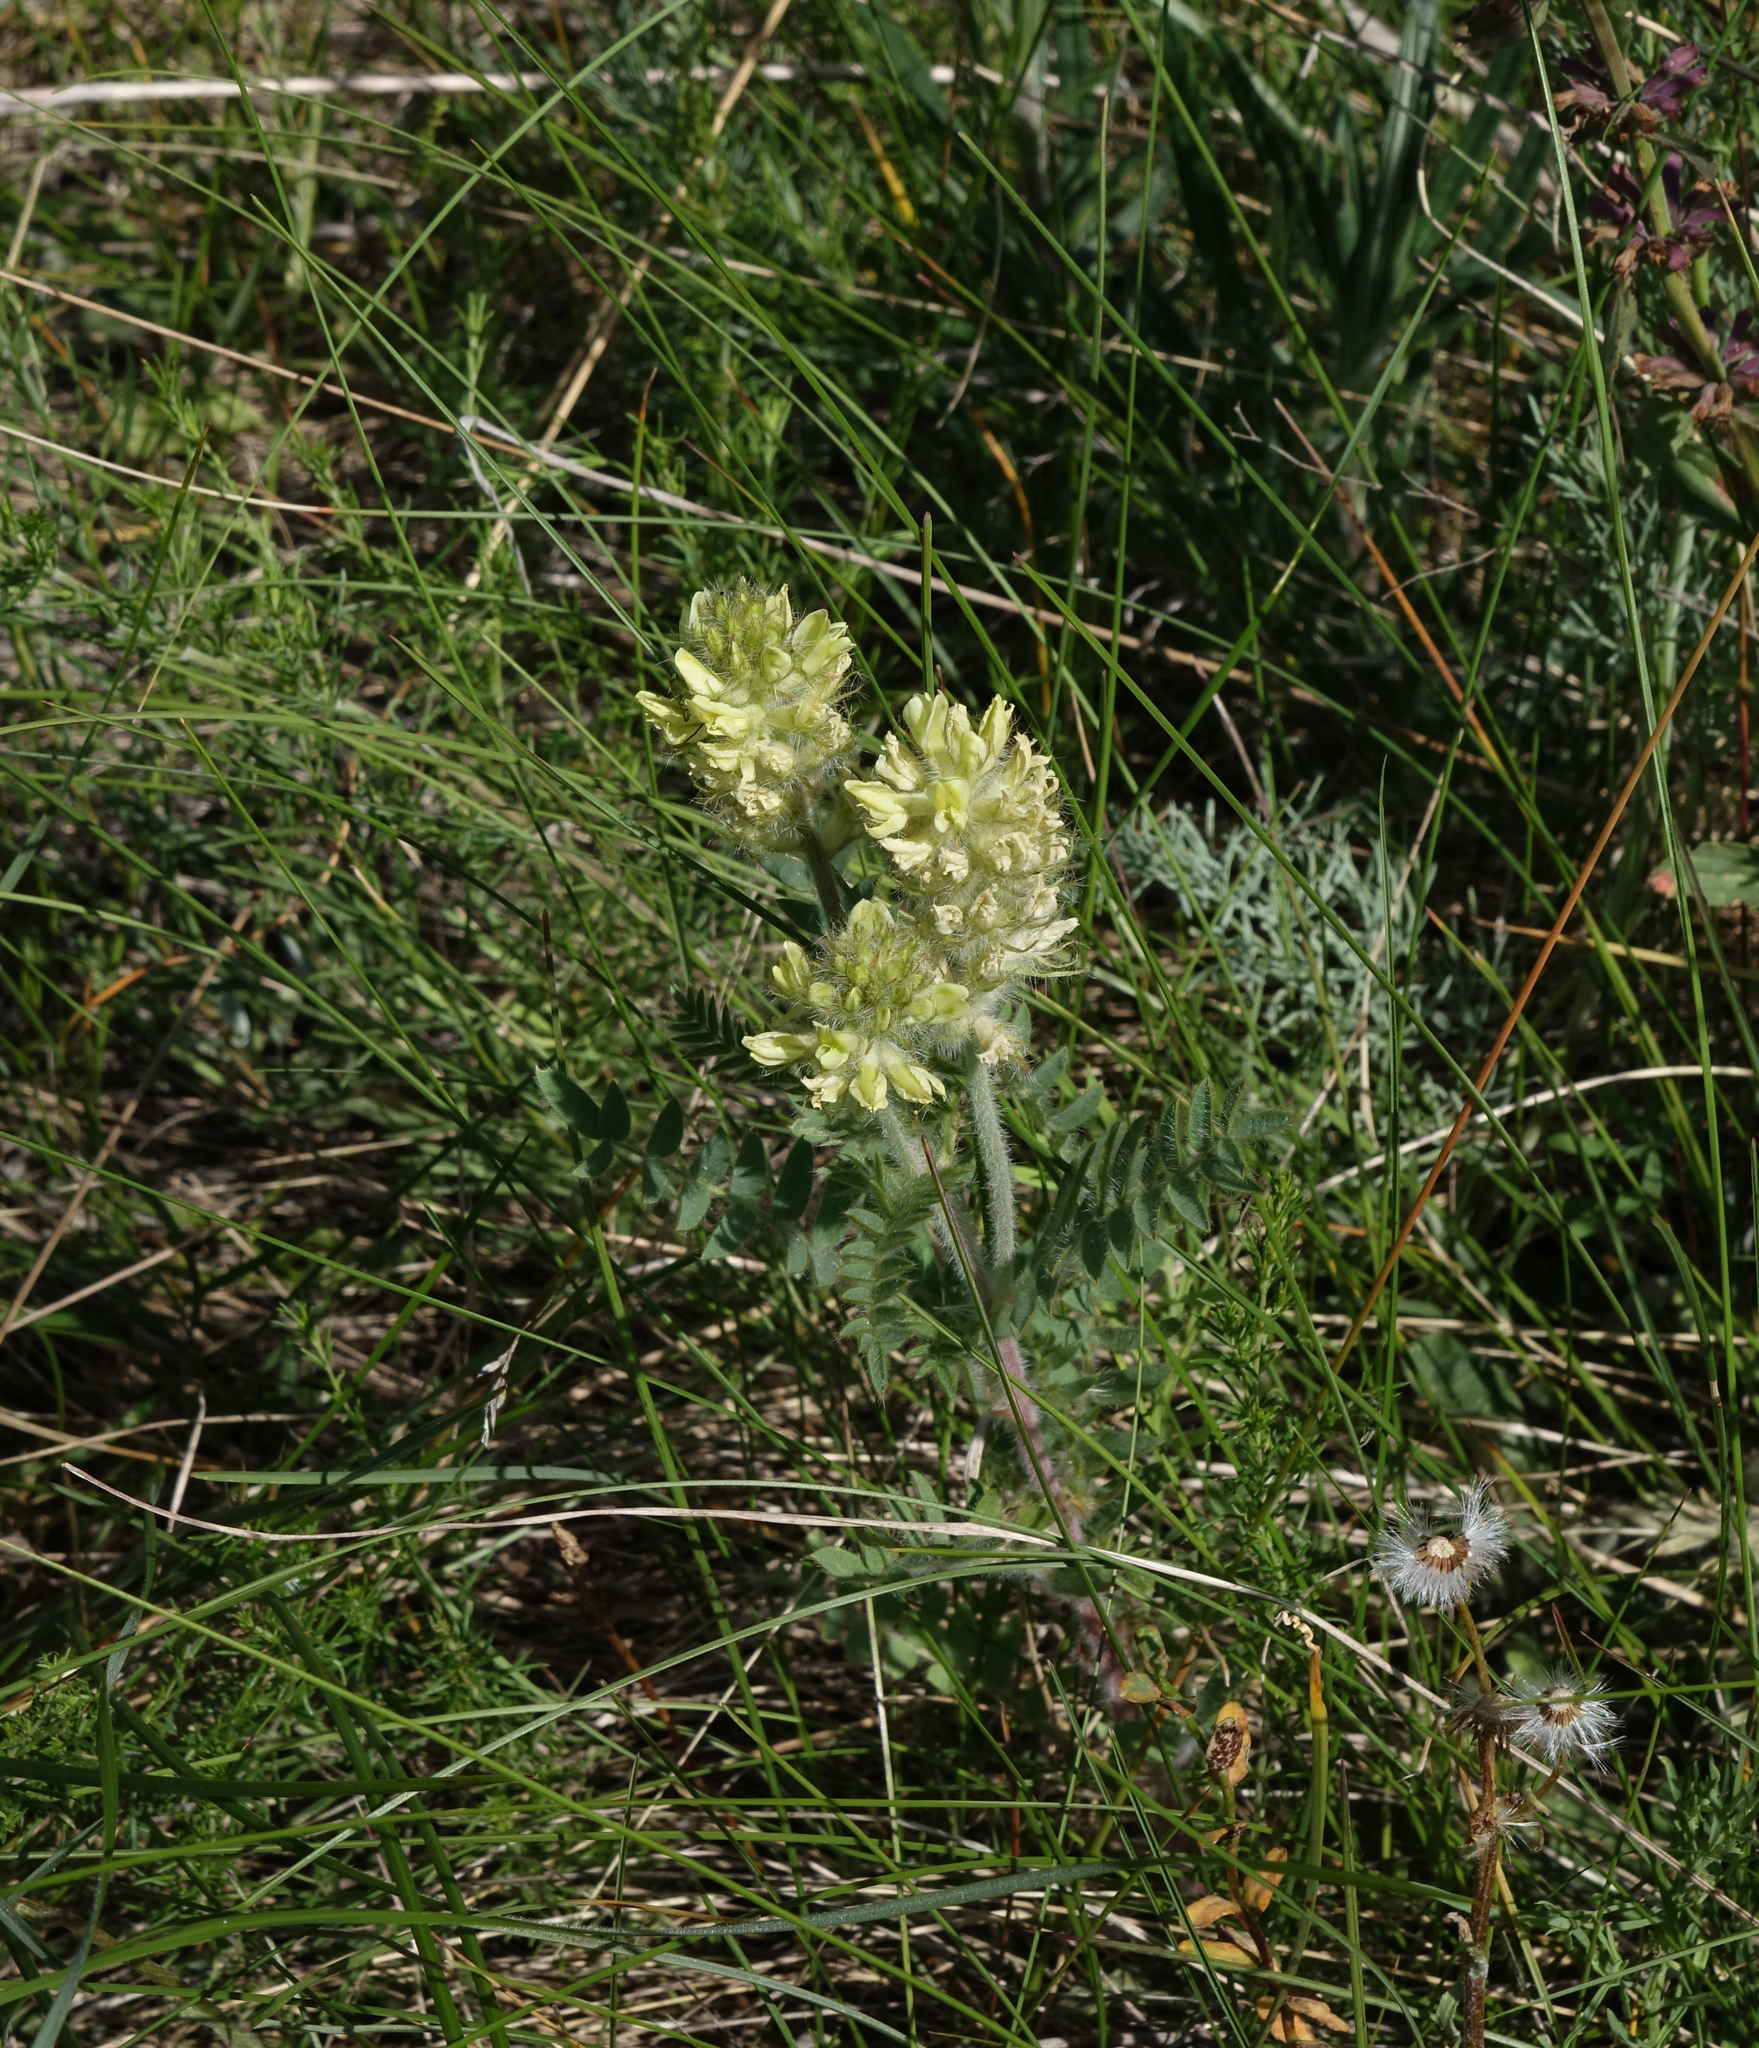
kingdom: Plantae
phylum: Tracheophyta
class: Magnoliopsida
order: Fabales
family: Fabaceae
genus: Oxytropis
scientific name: Oxytropis pilosa
